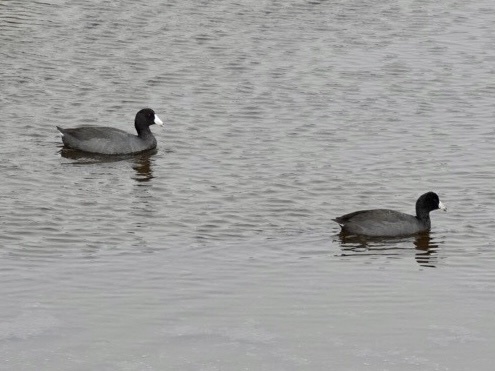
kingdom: Animalia
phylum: Chordata
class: Aves
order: Gruiformes
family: Rallidae
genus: Fulica
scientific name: Fulica americana
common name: American coot
